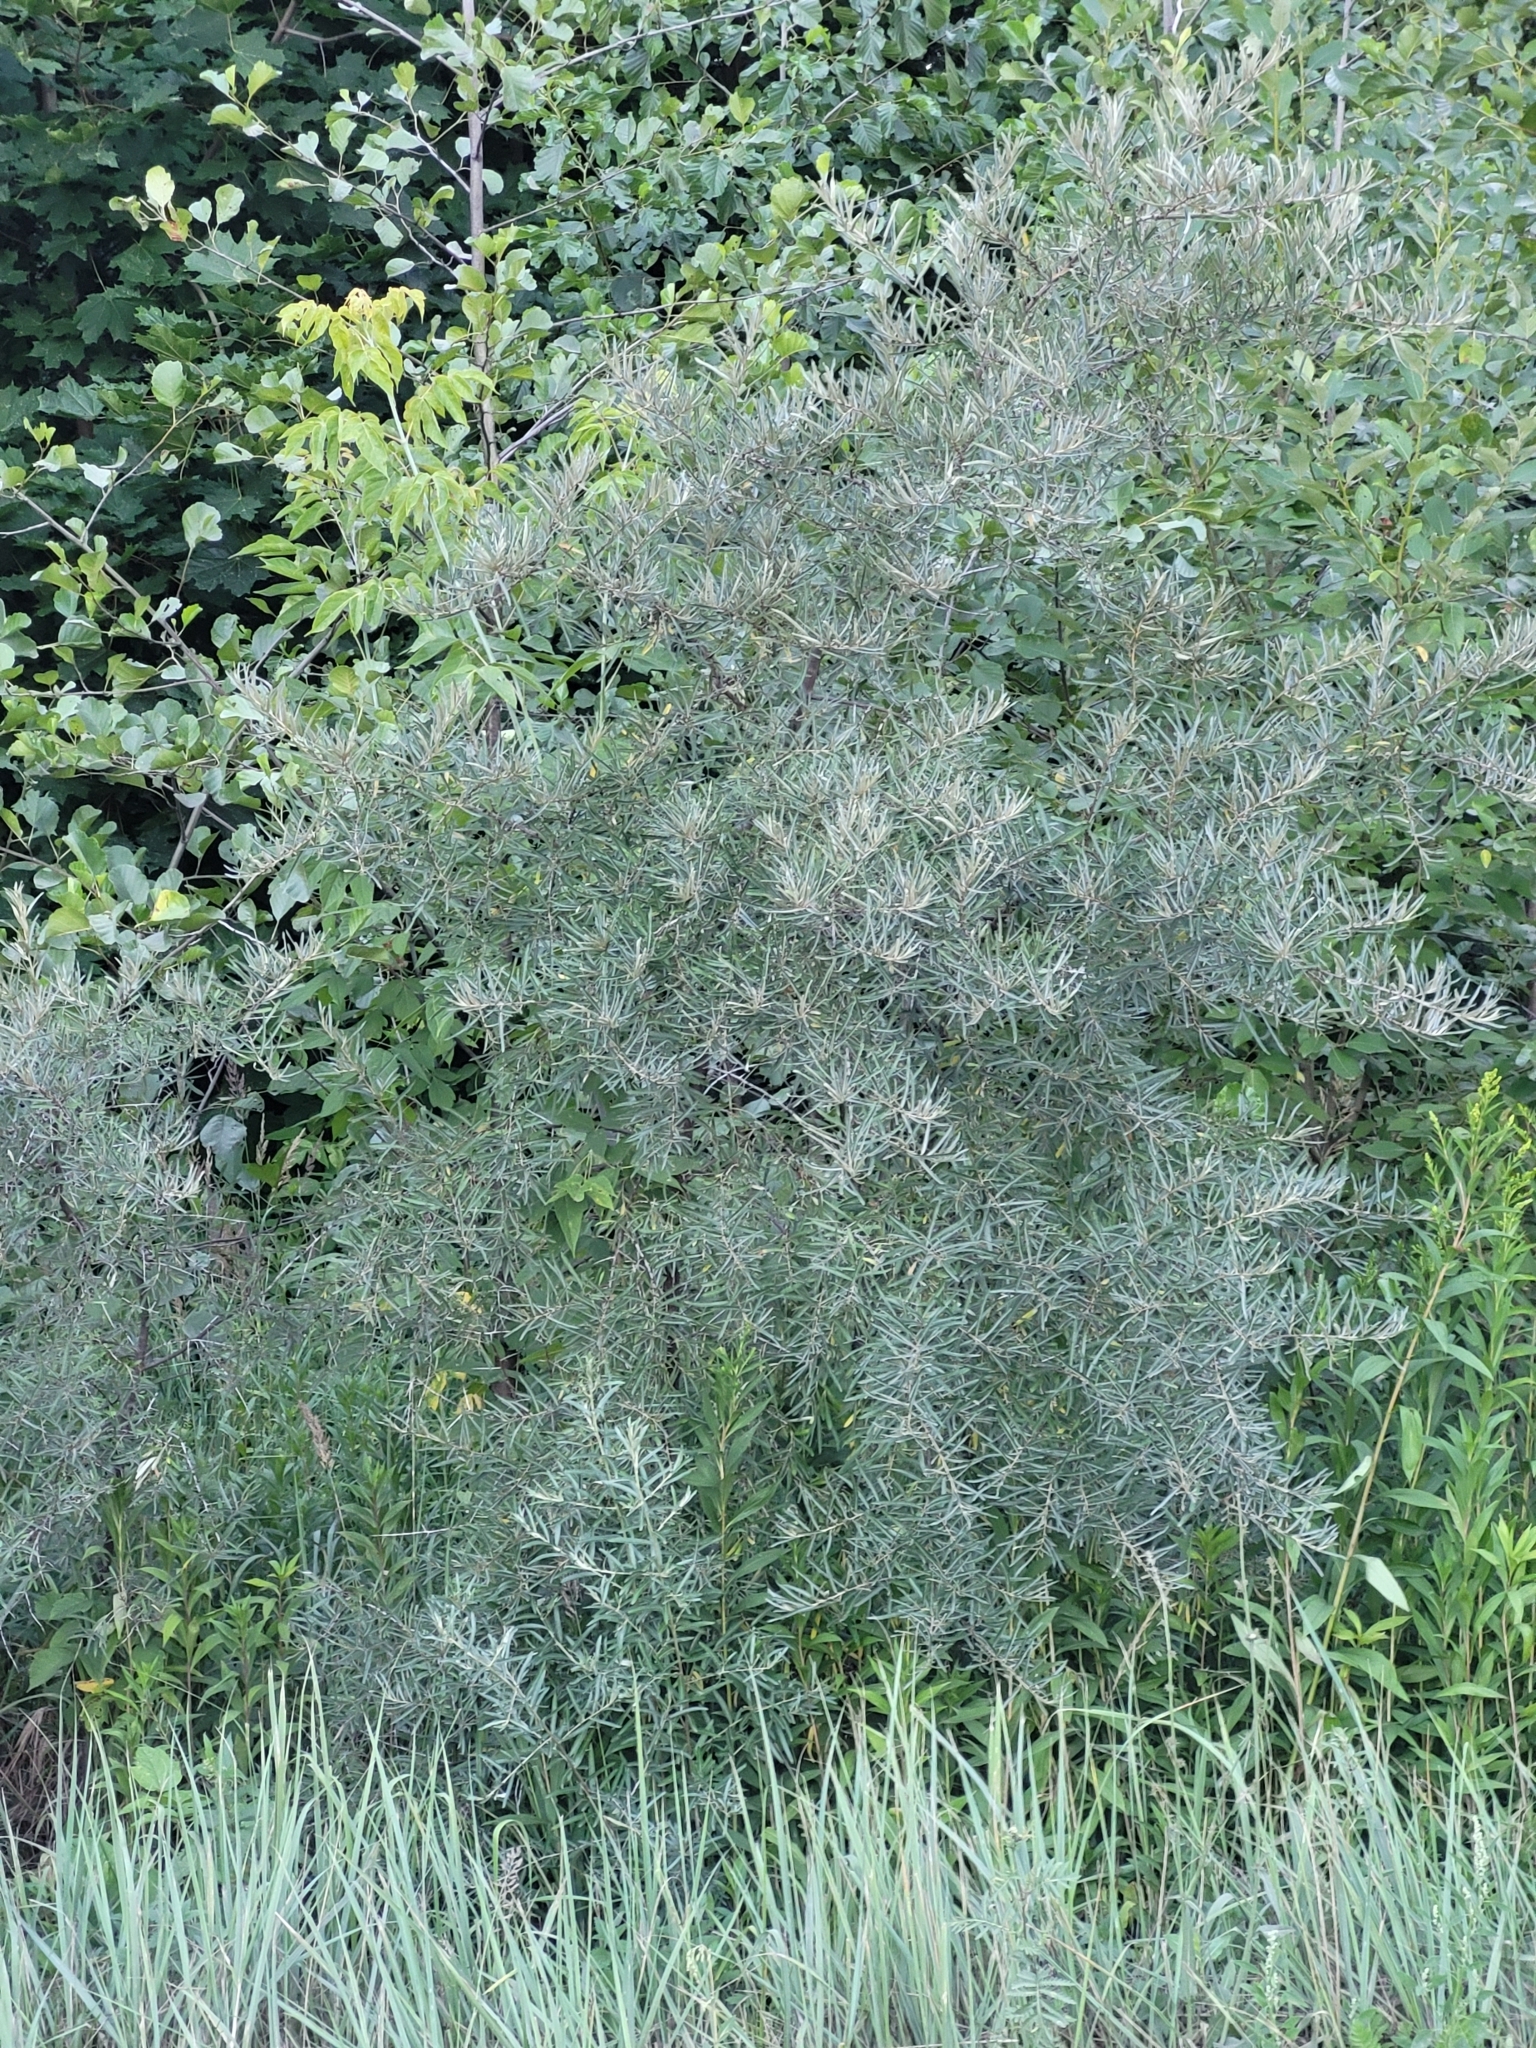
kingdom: Plantae
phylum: Tracheophyta
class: Magnoliopsida
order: Rosales
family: Elaeagnaceae
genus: Hippophae
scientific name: Hippophae rhamnoides
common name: Sea-buckthorn
